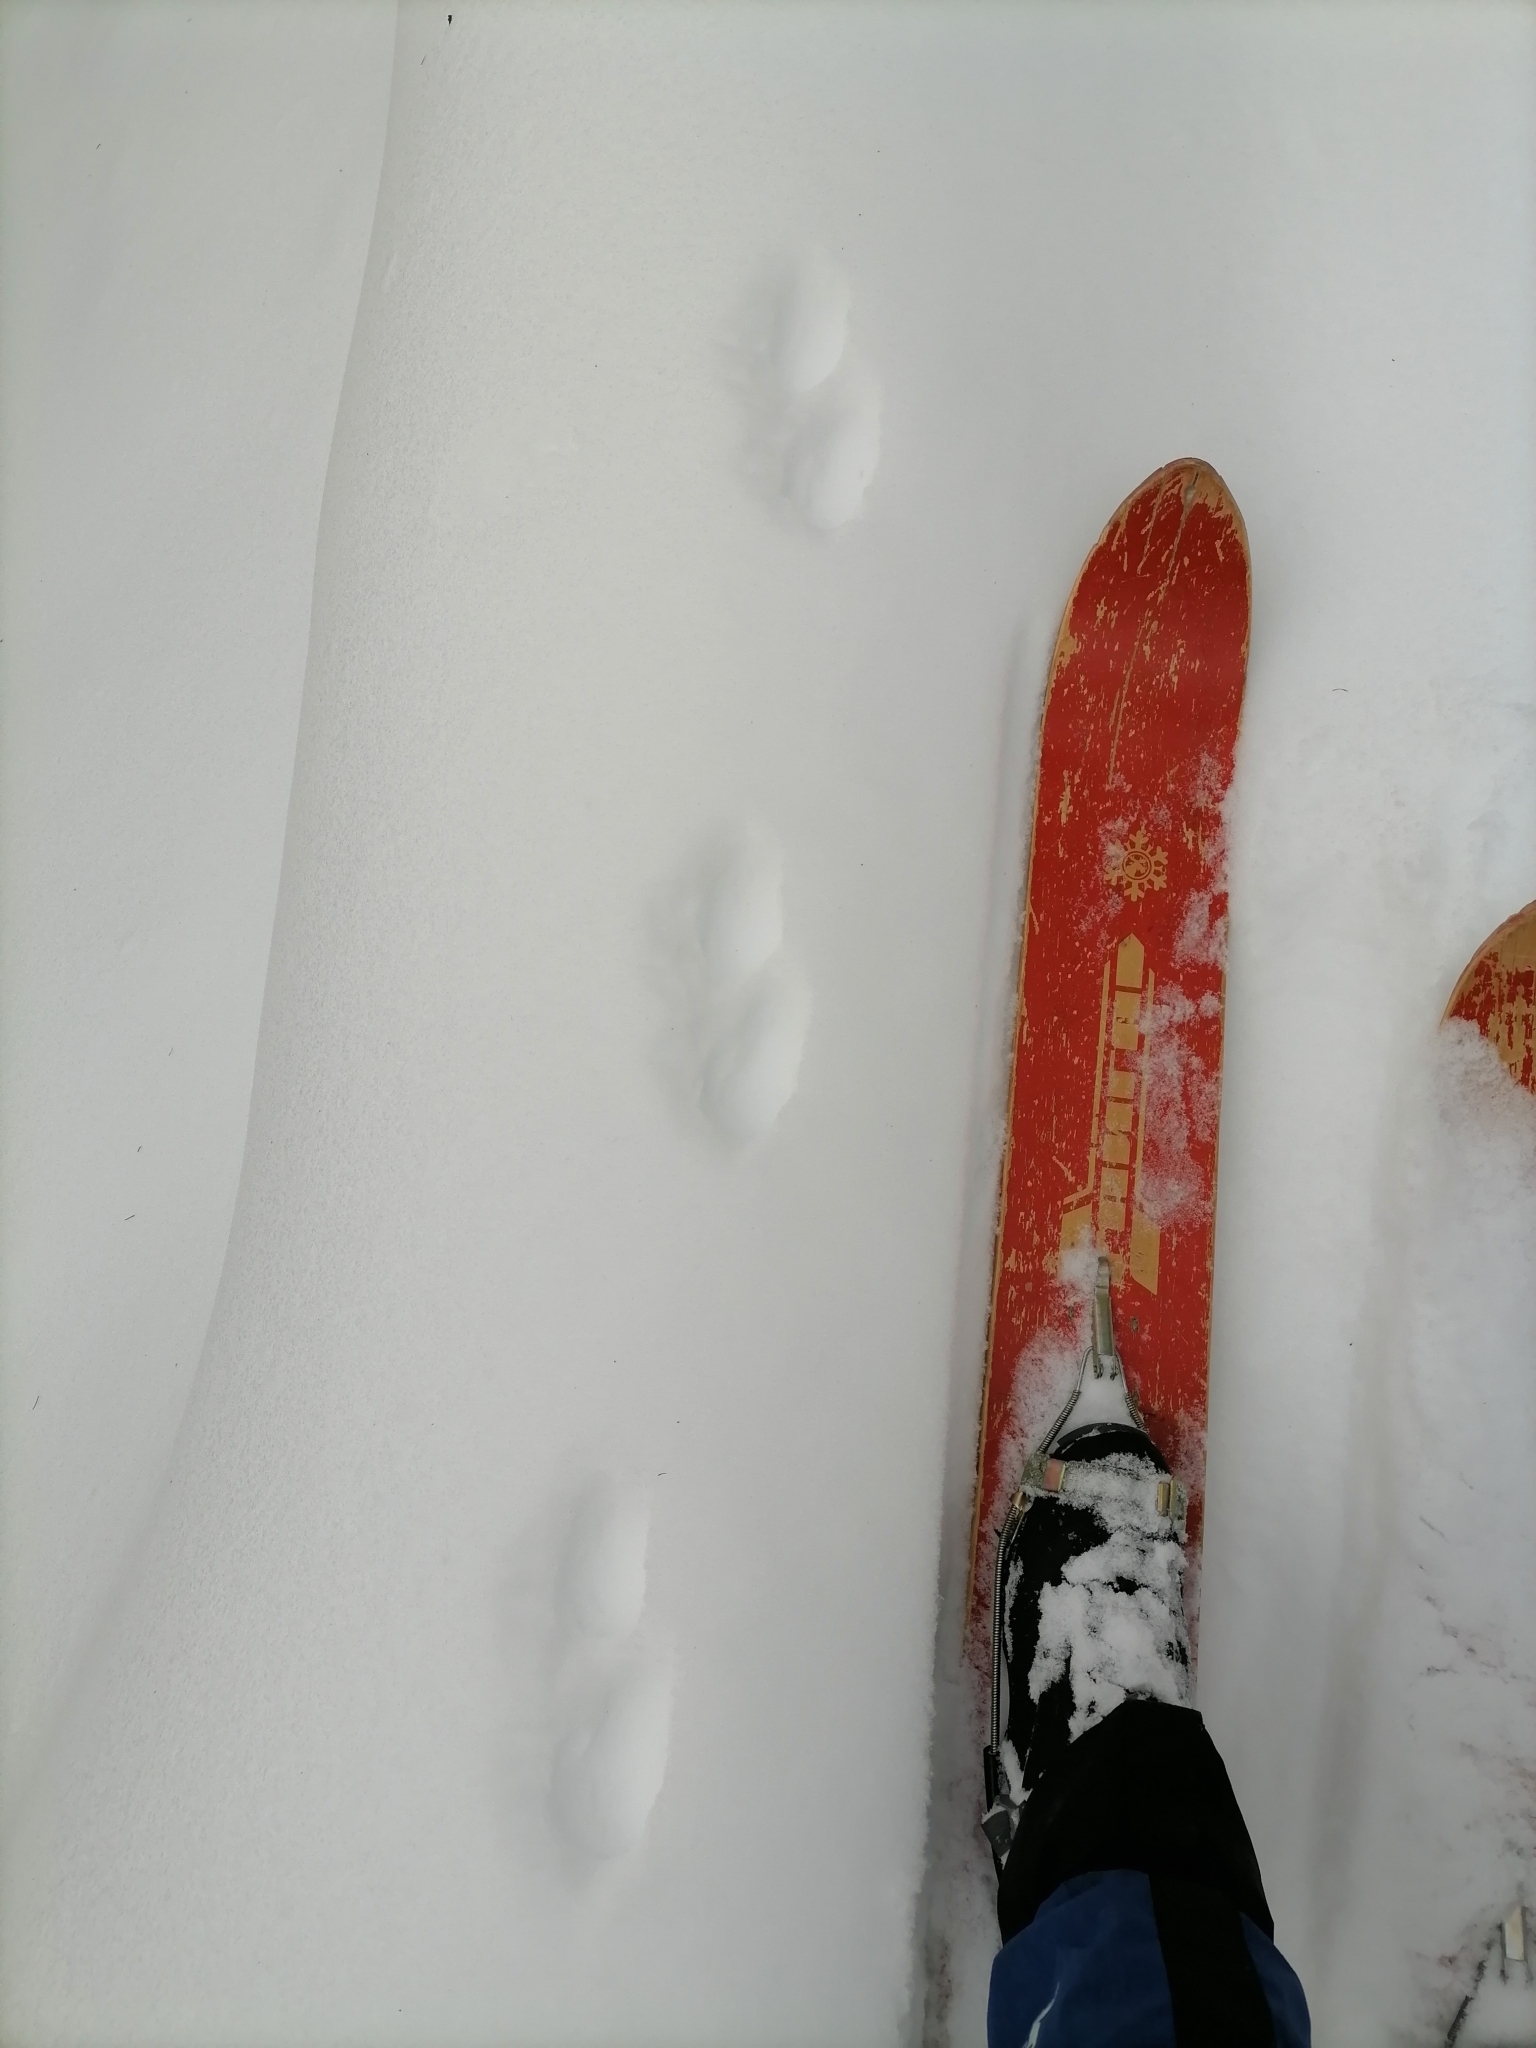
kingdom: Animalia
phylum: Chordata
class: Mammalia
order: Carnivora
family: Mustelidae
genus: Martes
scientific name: Martes martes
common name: European pine marten
